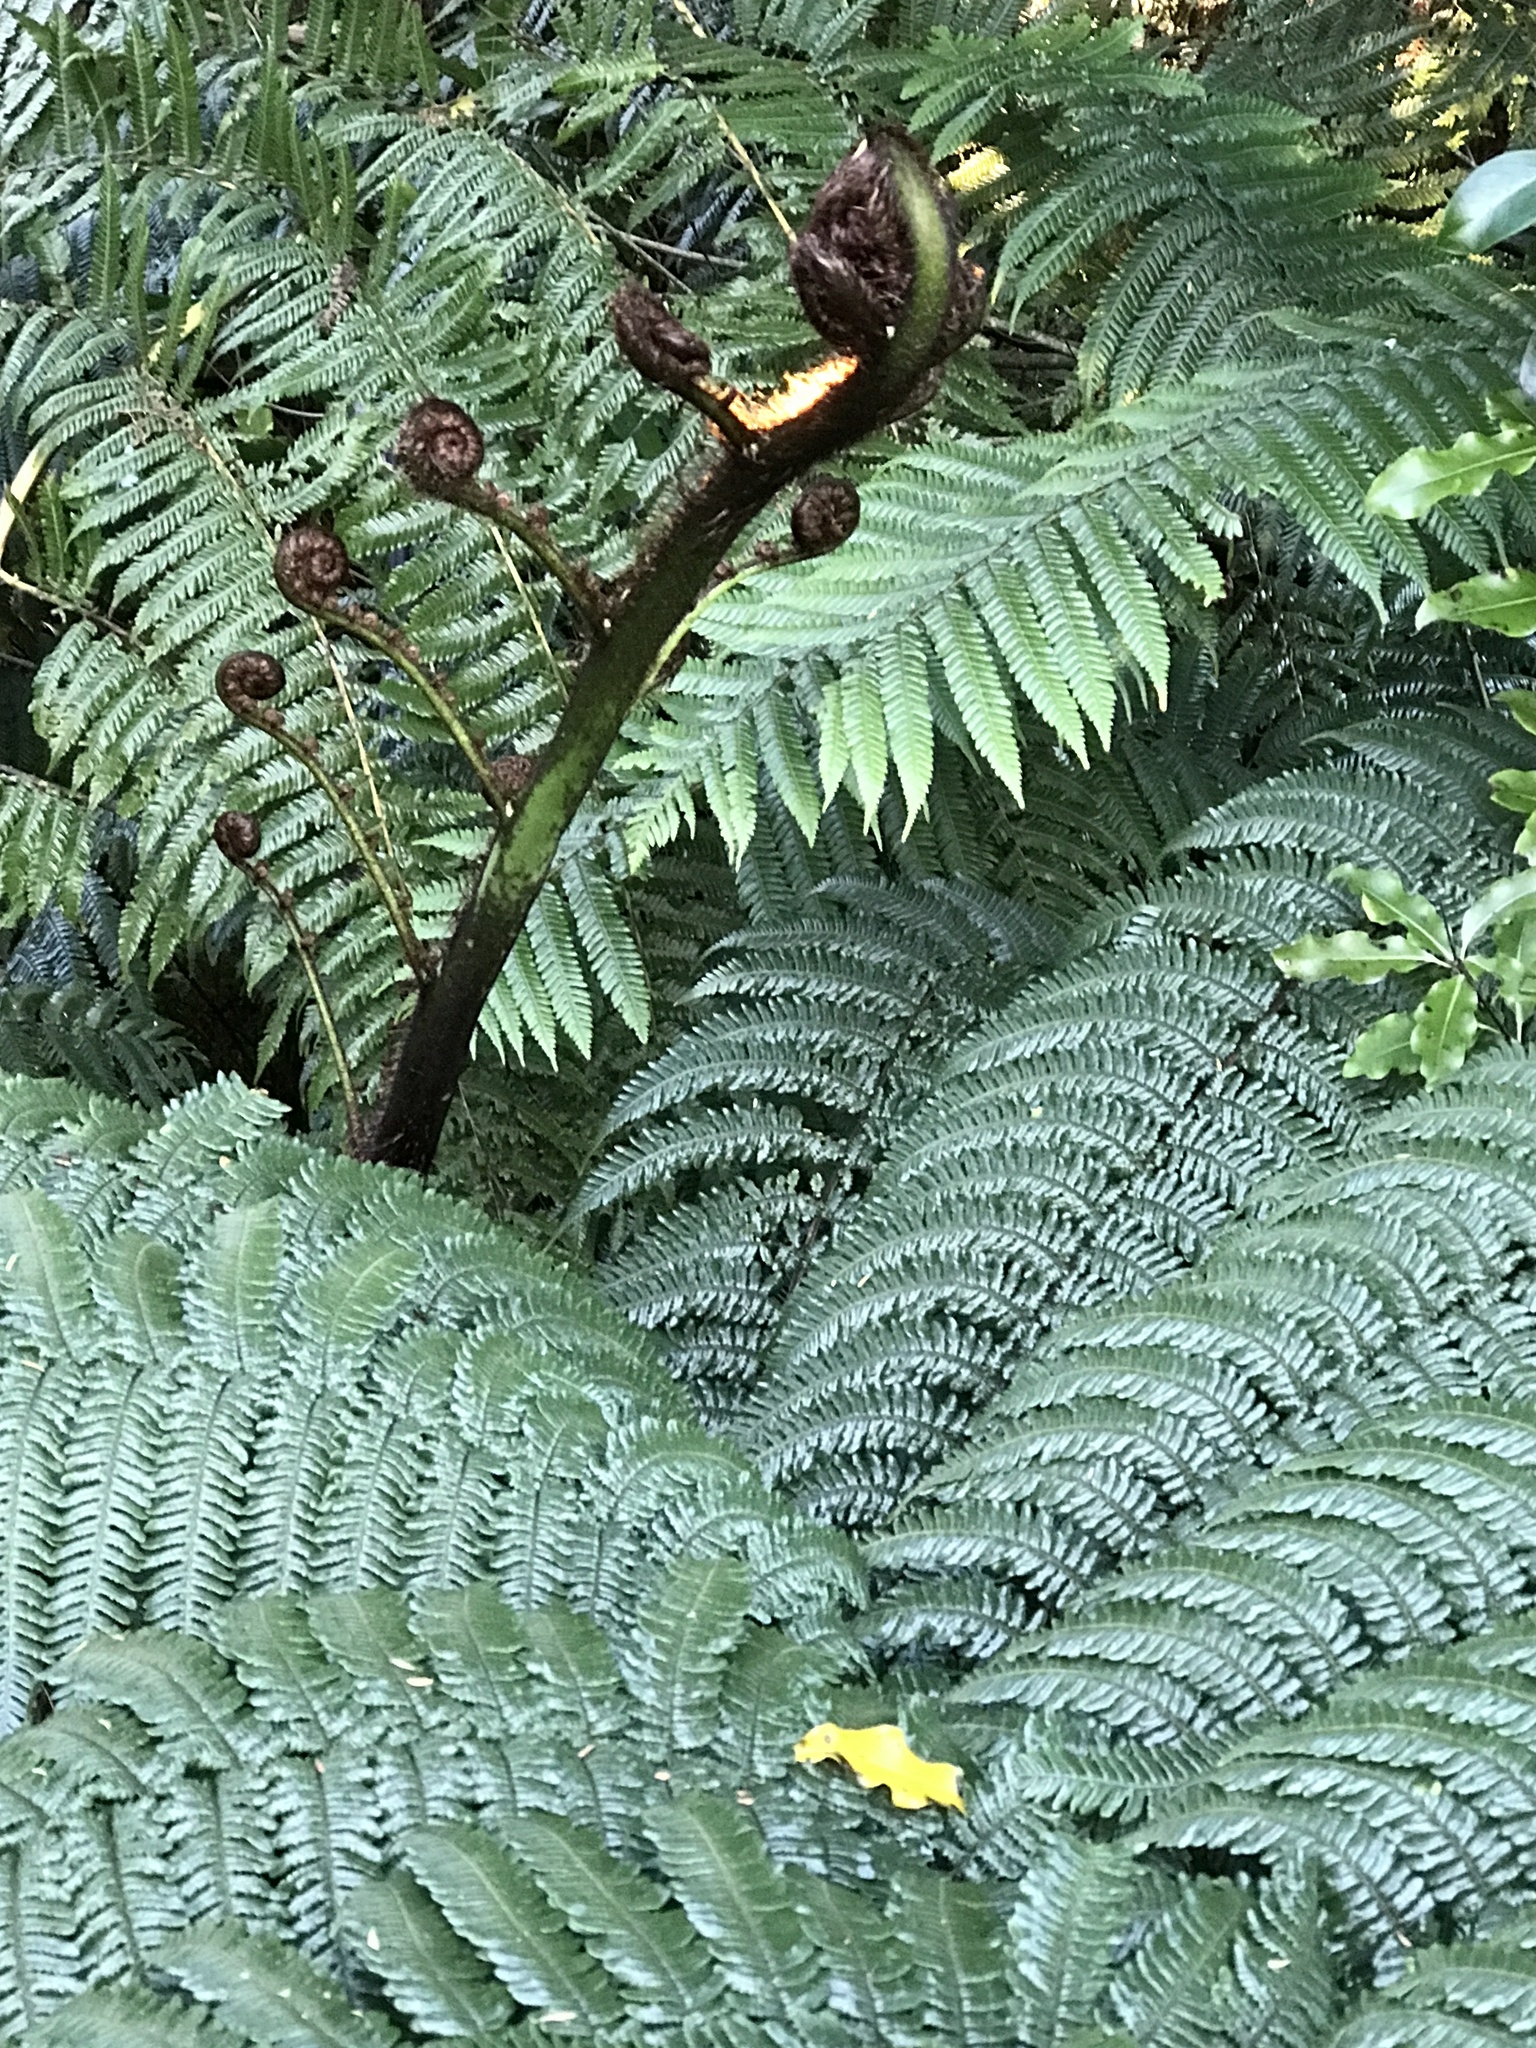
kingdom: Plantae
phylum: Tracheophyta
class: Polypodiopsida
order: Cyatheales
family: Cyatheaceae
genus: Sphaeropteris
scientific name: Sphaeropteris medullaris
